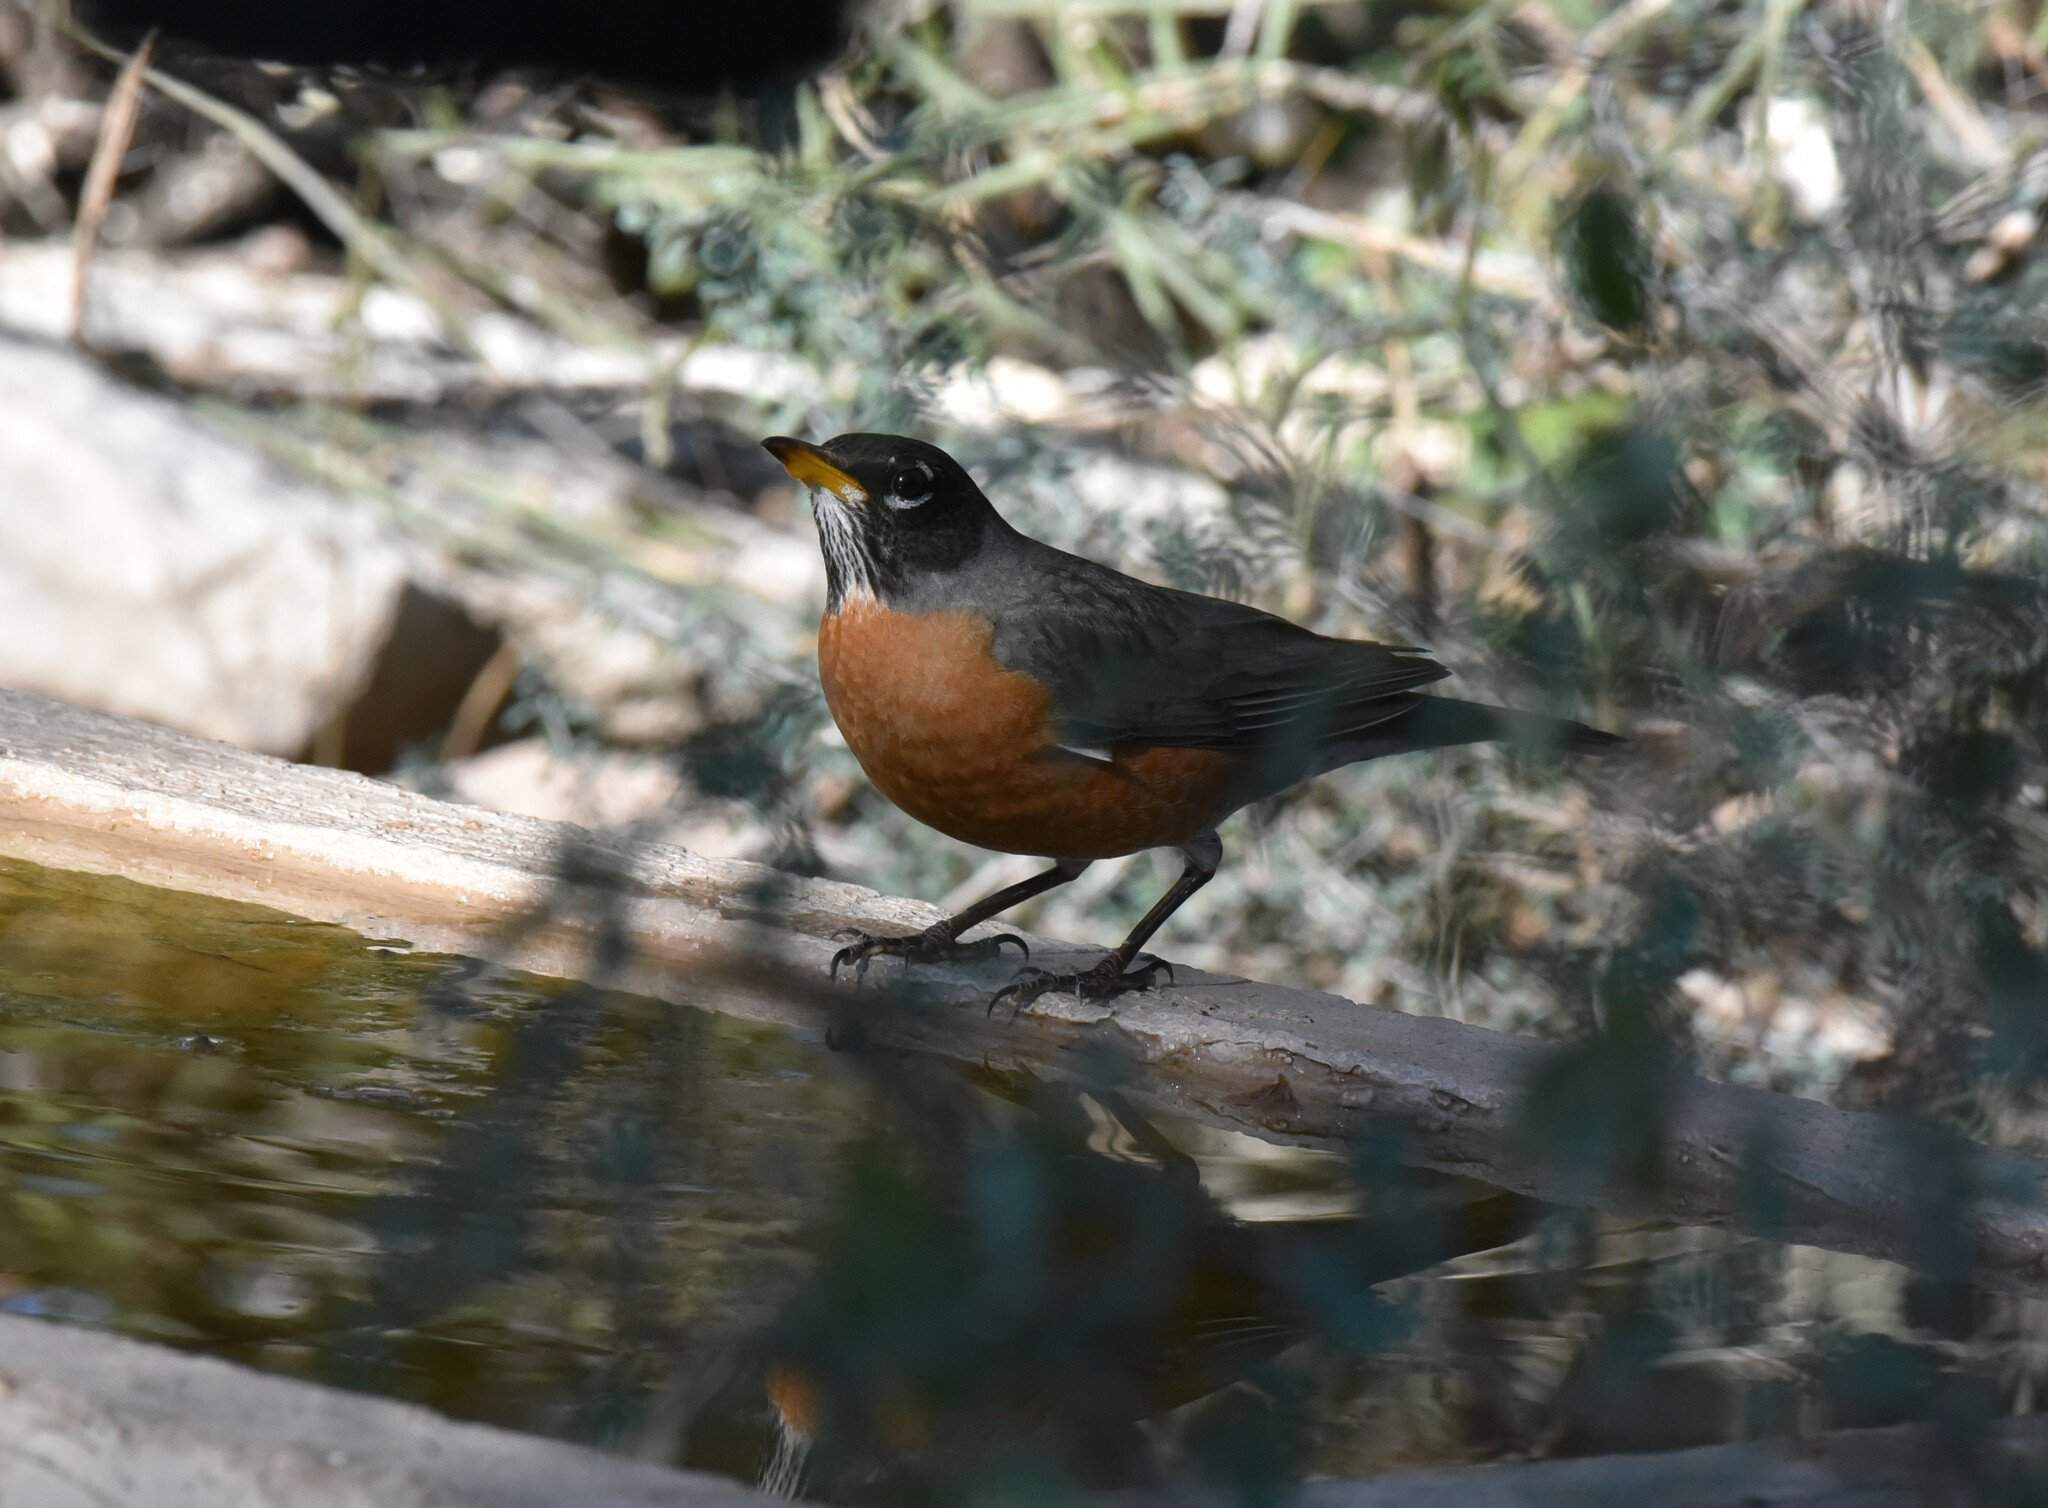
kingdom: Animalia
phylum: Chordata
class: Aves
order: Passeriformes
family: Turdidae
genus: Turdus
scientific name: Turdus migratorius
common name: American robin
